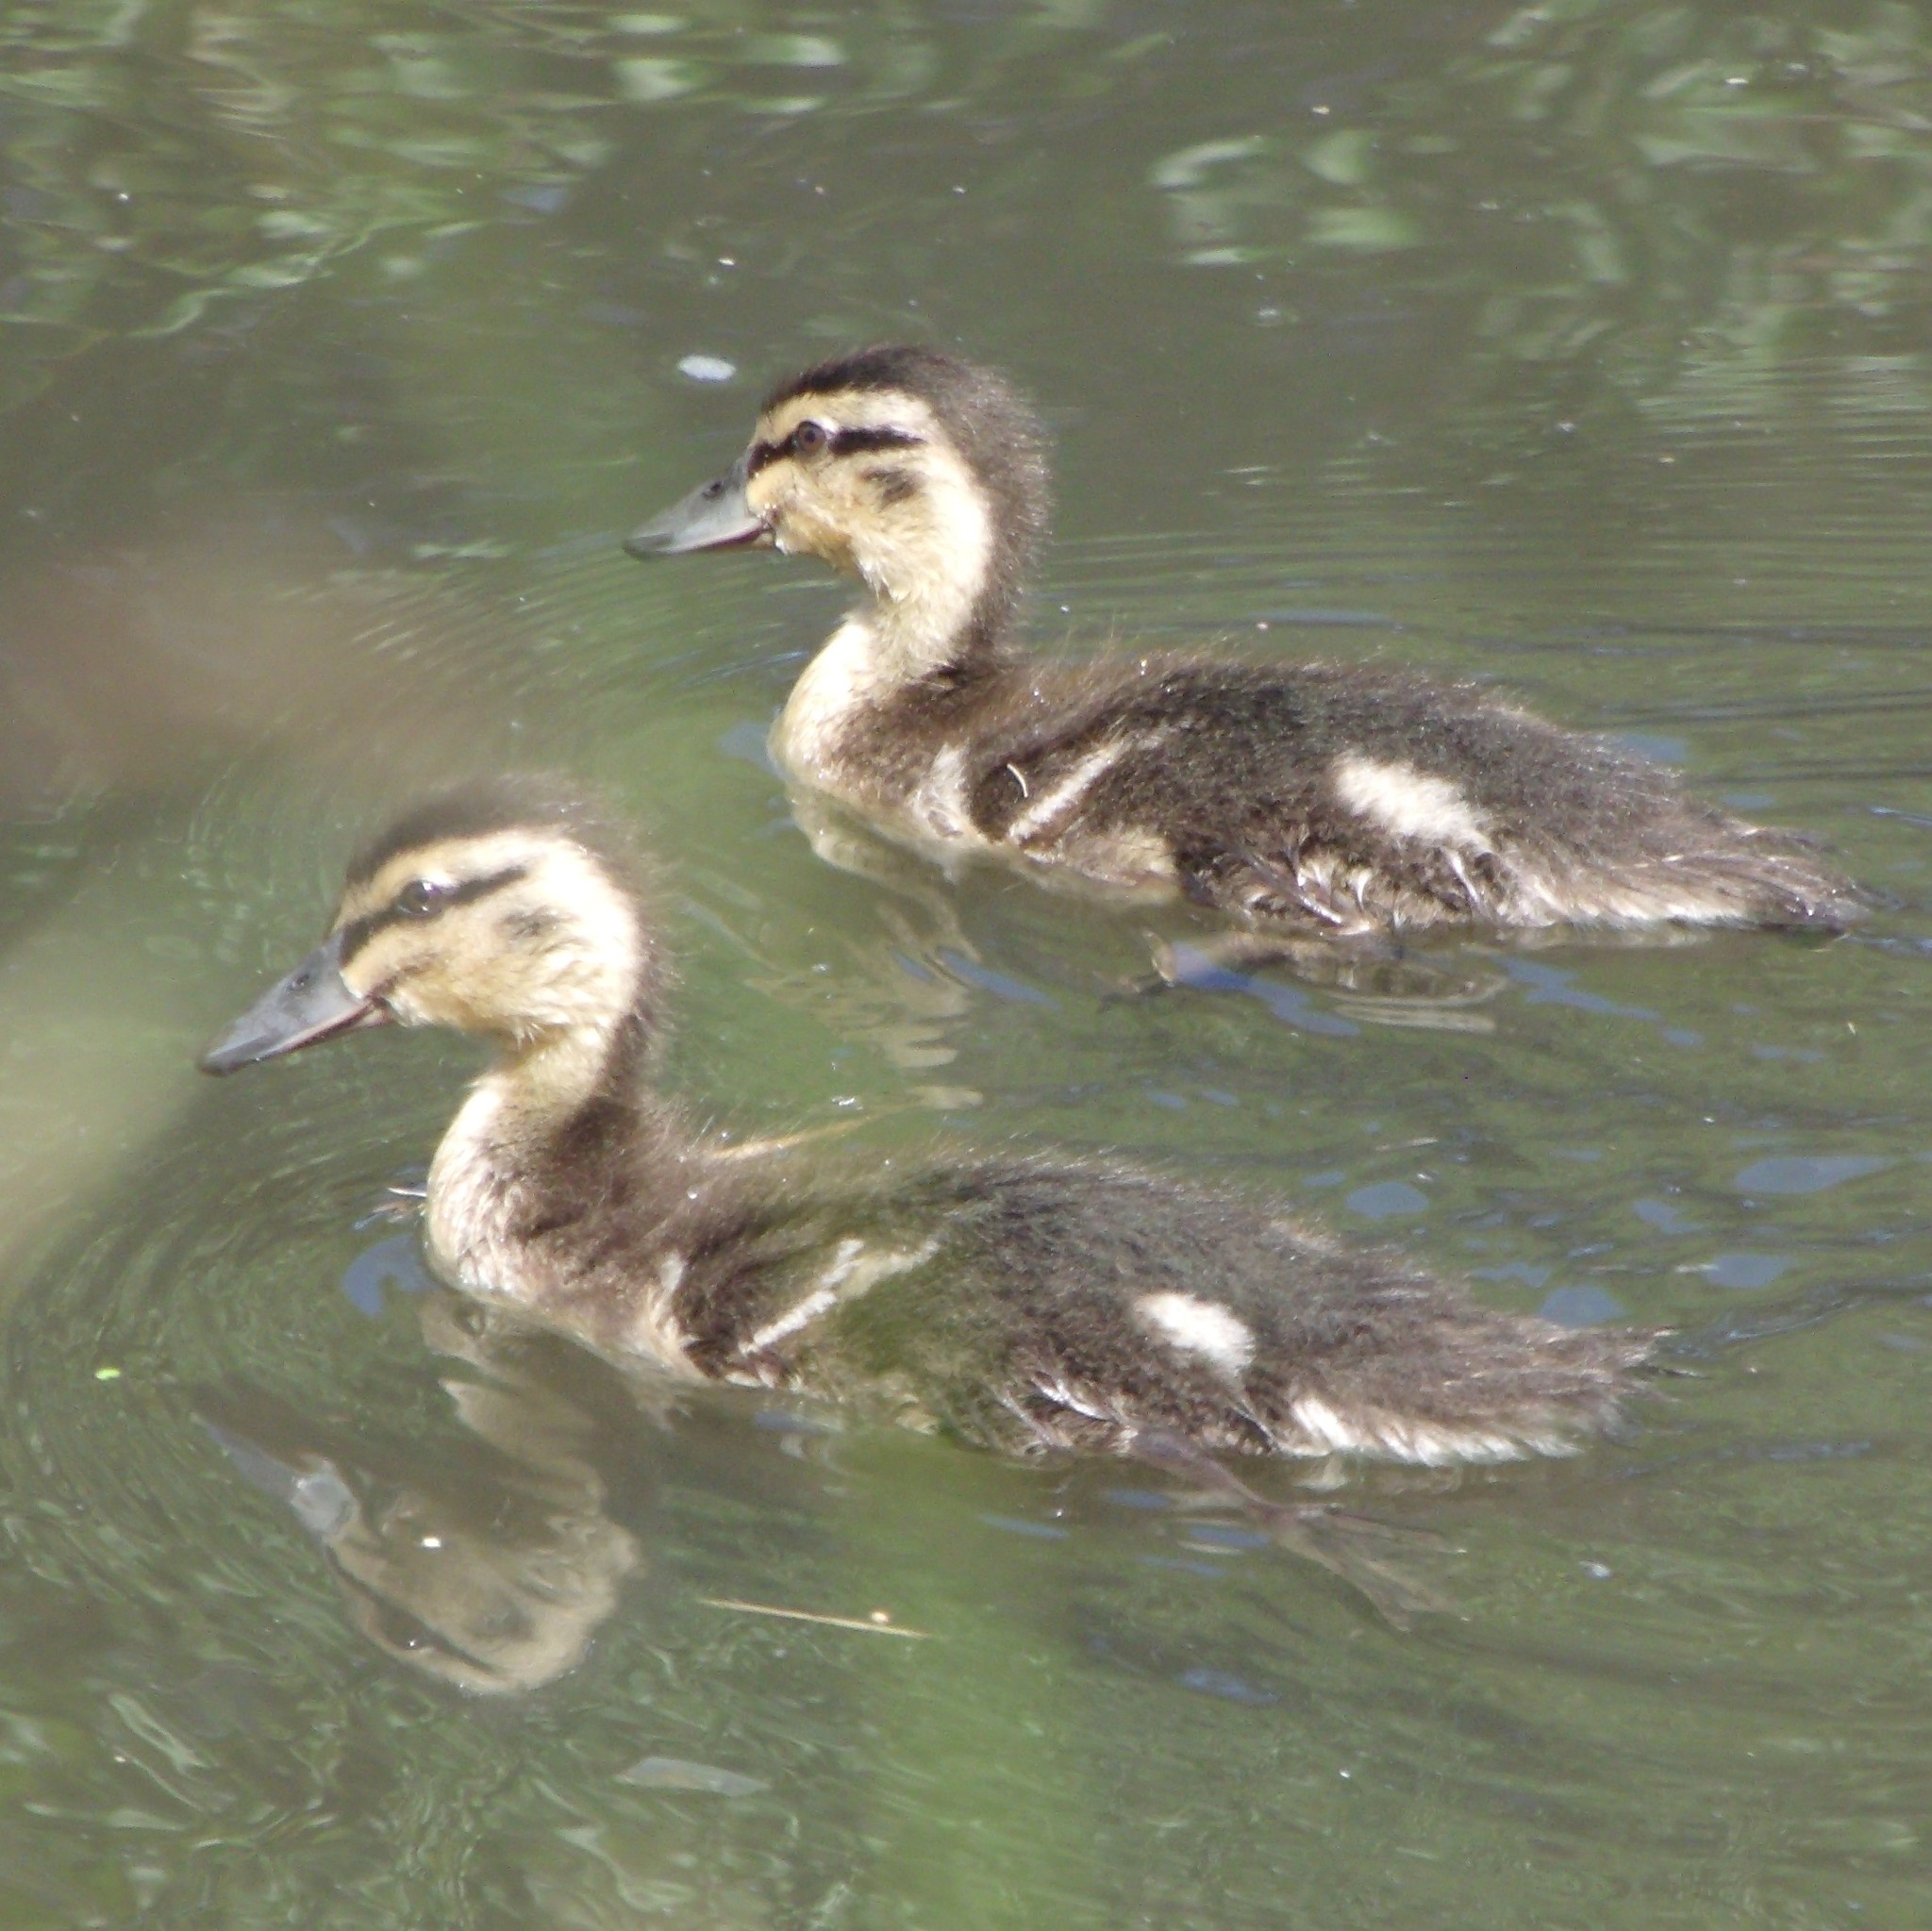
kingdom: Animalia
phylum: Chordata
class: Aves
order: Anseriformes
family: Anatidae
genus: Anas
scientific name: Anas
